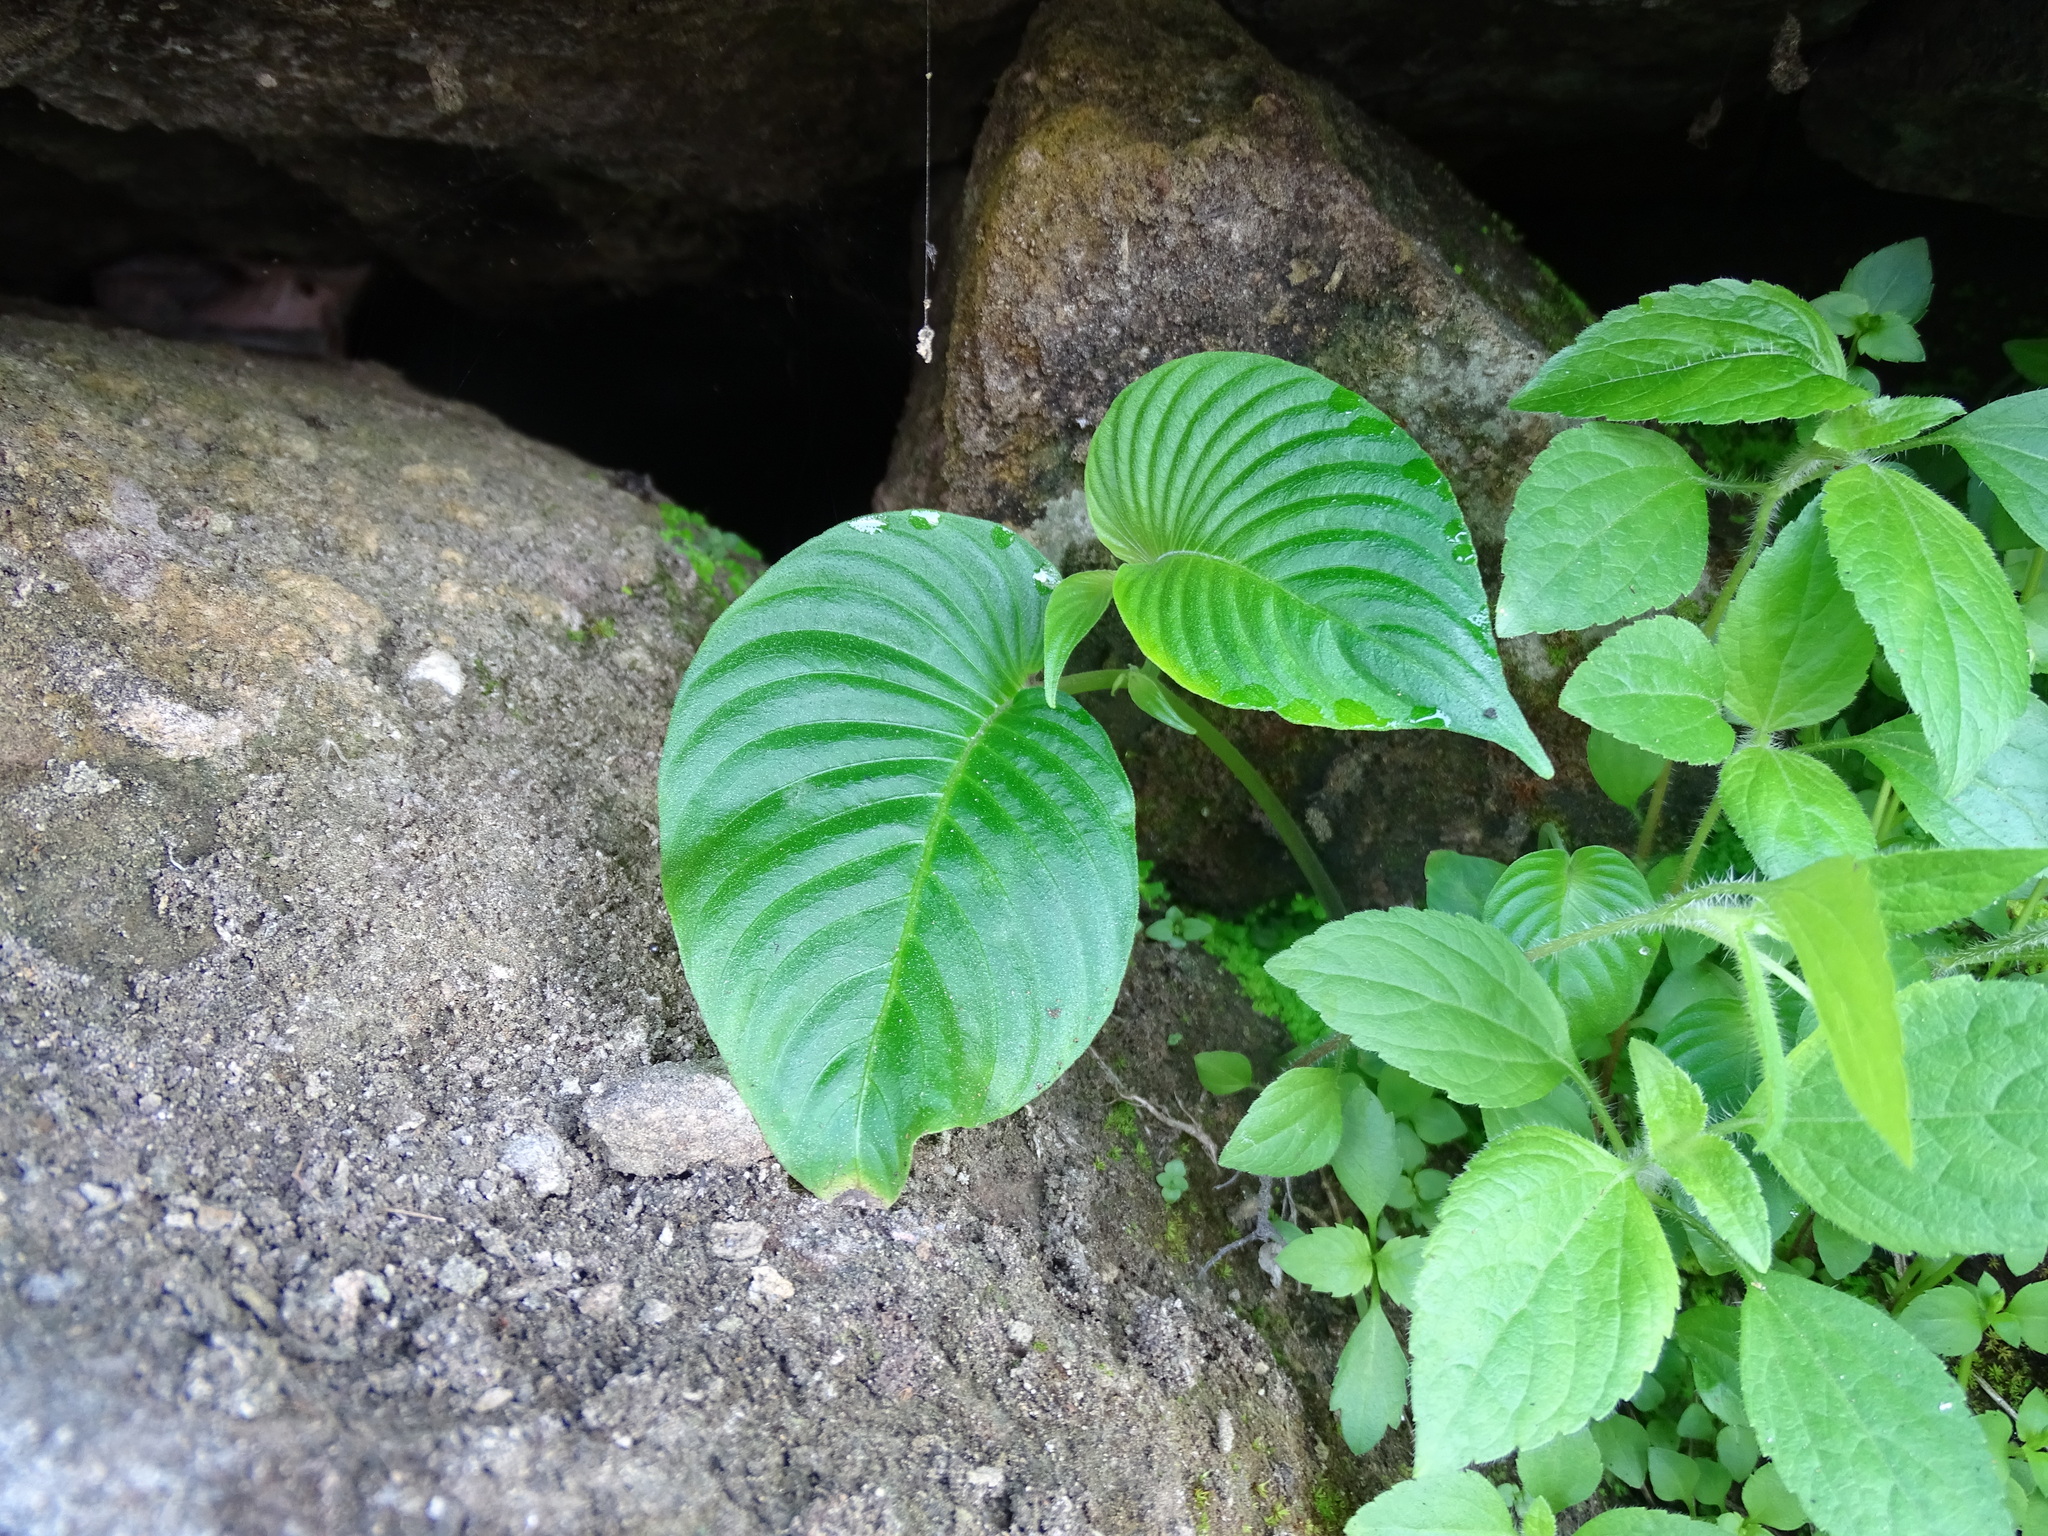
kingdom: Plantae
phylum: Tracheophyta
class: Magnoliopsida
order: Lamiales
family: Gesneriaceae
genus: Rhynchoglossum
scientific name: Rhynchoglossum obliquum
